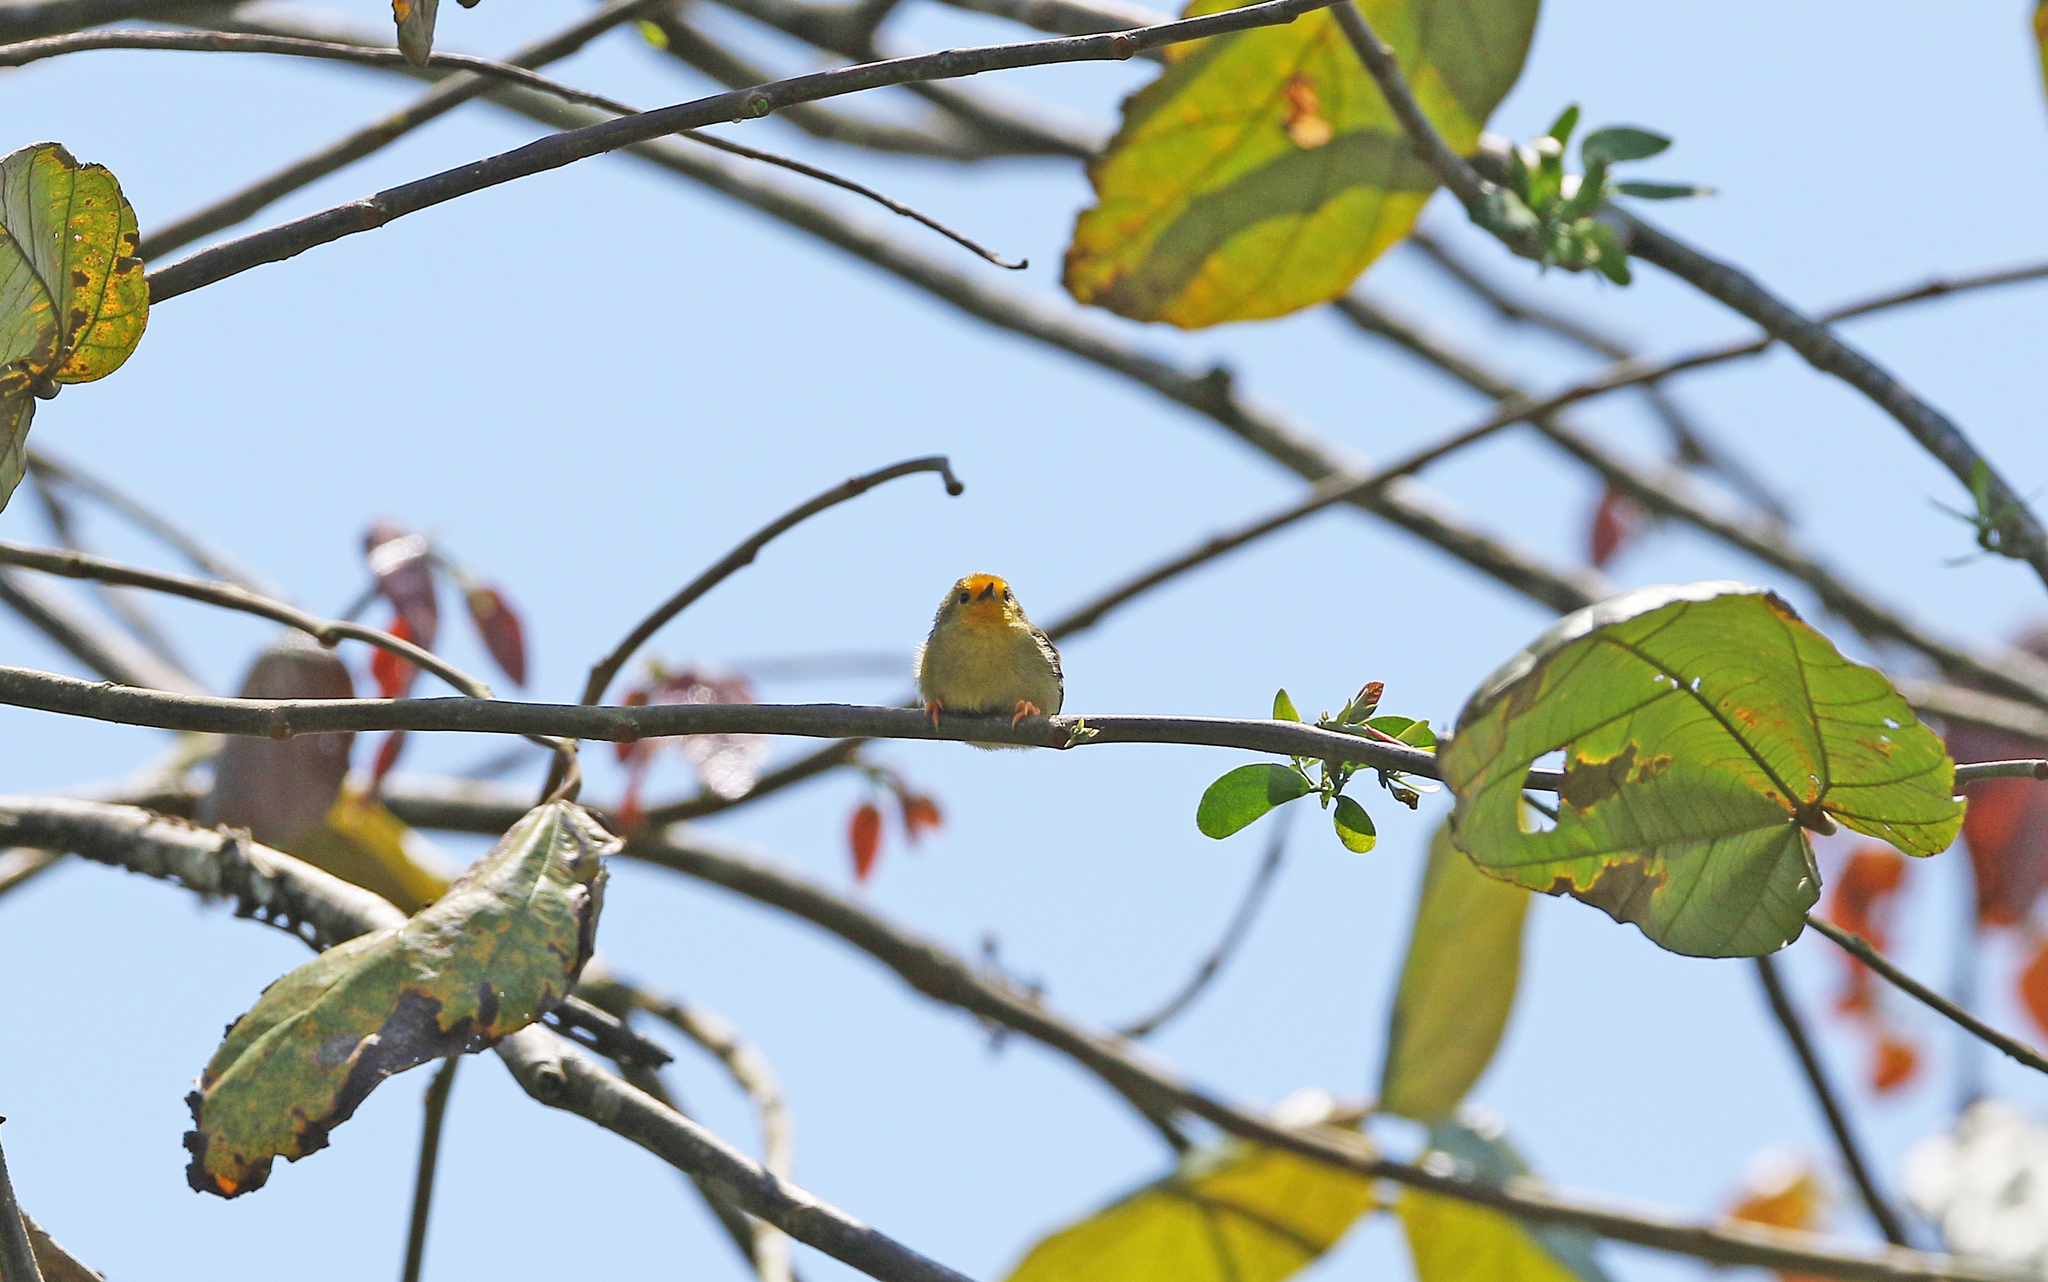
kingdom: Animalia
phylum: Chordata
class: Aves
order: Passeriformes
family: Furnariidae
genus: Metopothrix
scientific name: Metopothrix aurantiaca
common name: Orange-fronted plushcrown
